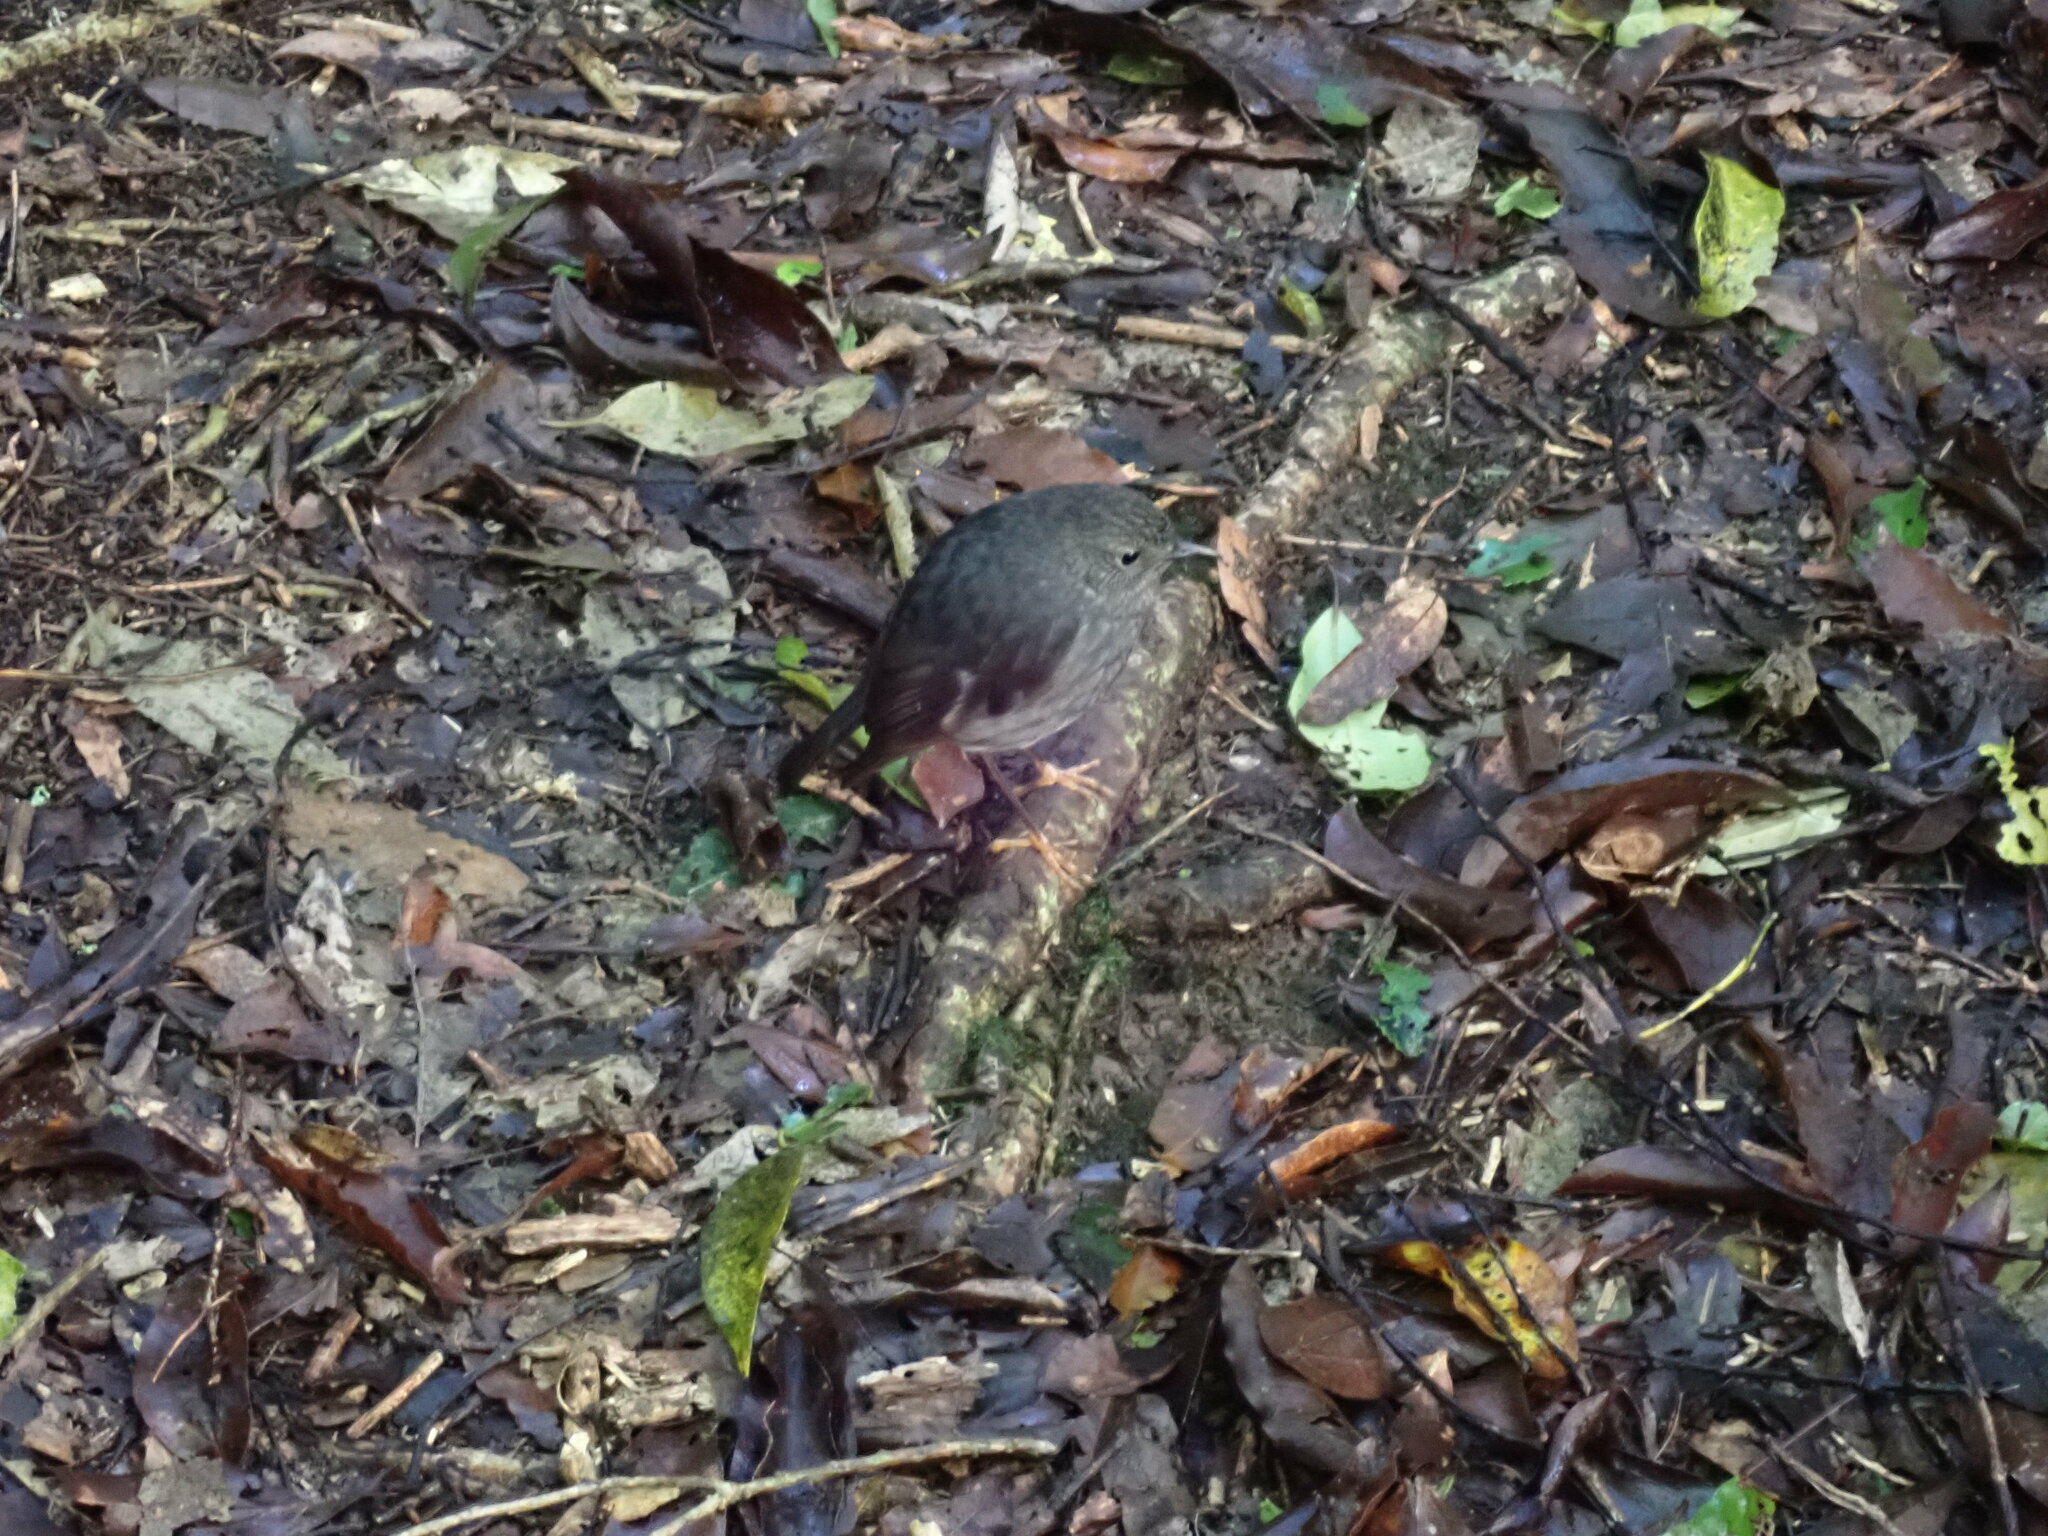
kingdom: Animalia
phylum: Chordata
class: Aves
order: Passeriformes
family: Petroicidae
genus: Petroica
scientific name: Petroica australis
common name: New zealand robin
